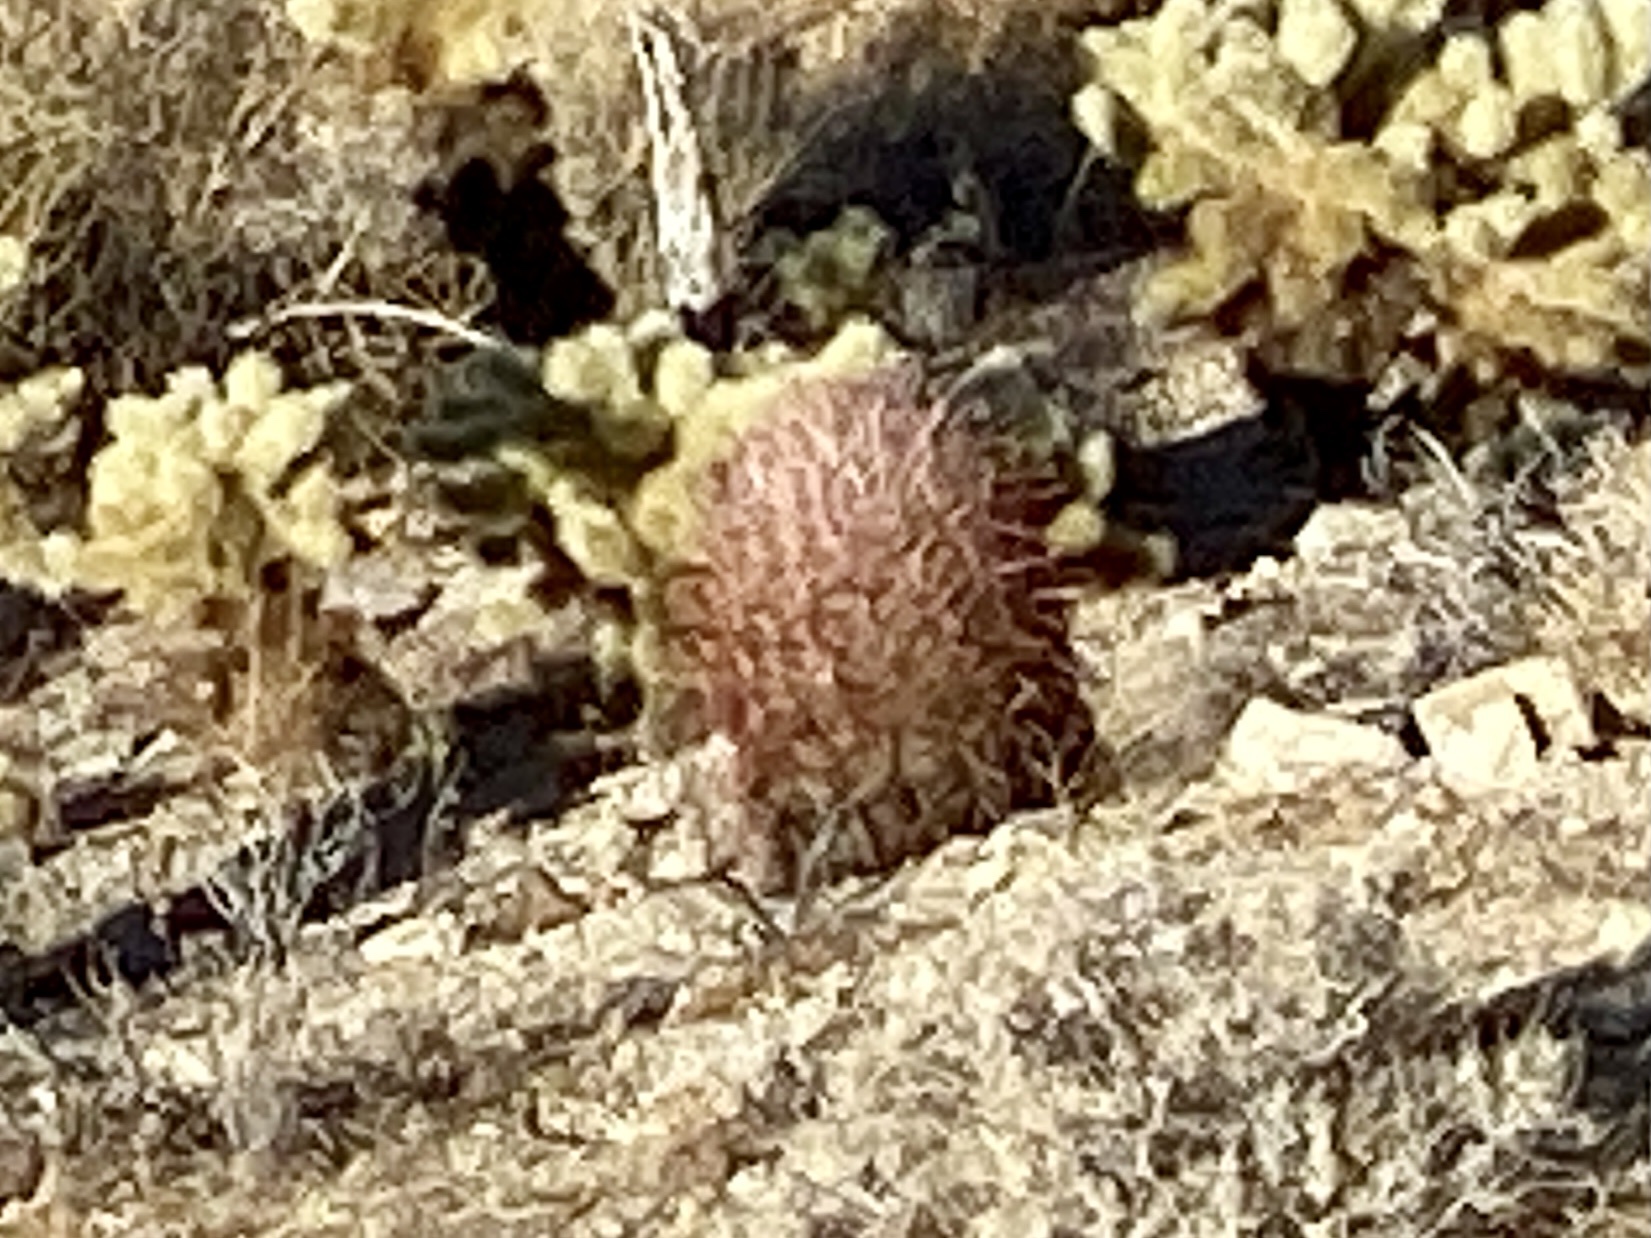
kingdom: Plantae
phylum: Tracheophyta
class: Magnoliopsida
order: Caryophyllales
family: Cactaceae
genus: Ferocactus
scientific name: Ferocactus cylindraceus
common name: California barrel cactus
